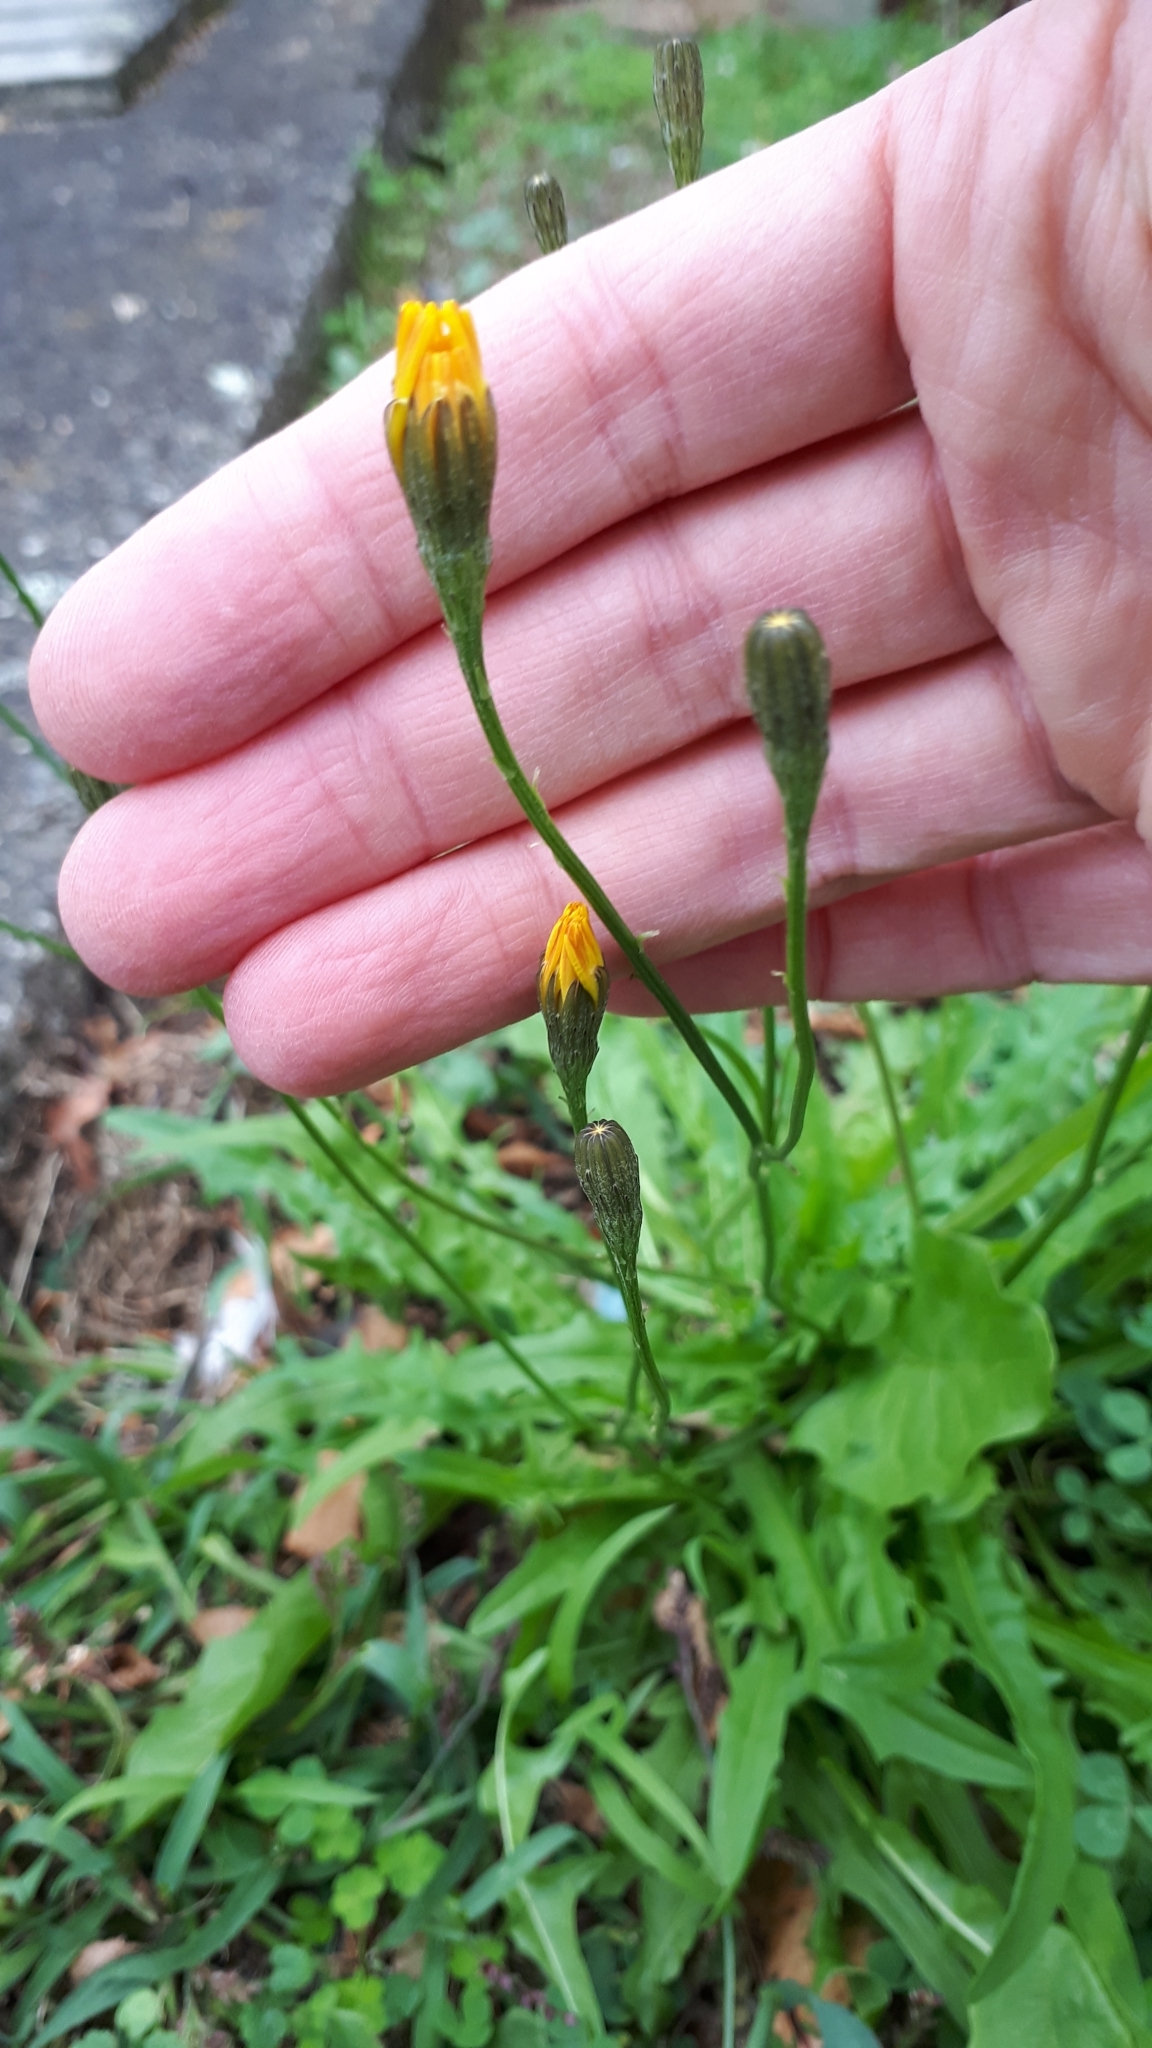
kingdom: Plantae
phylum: Tracheophyta
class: Magnoliopsida
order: Asterales
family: Asteraceae
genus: Crepis
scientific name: Crepis capillaris
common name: Smooth hawksbeard
